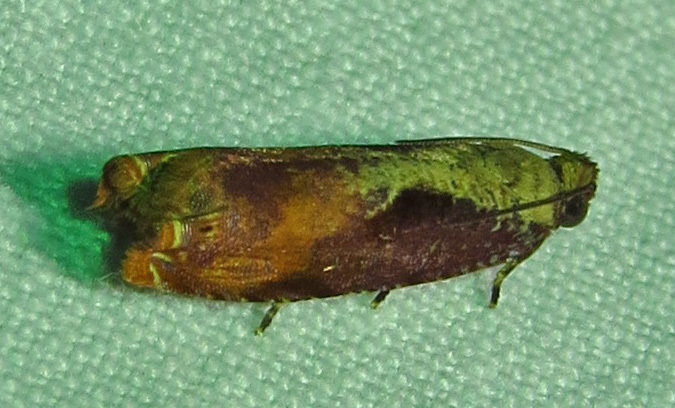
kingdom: Animalia
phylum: Arthropoda
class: Insecta
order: Lepidoptera
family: Tortricidae
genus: Episimus
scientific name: Episimus tyrius
